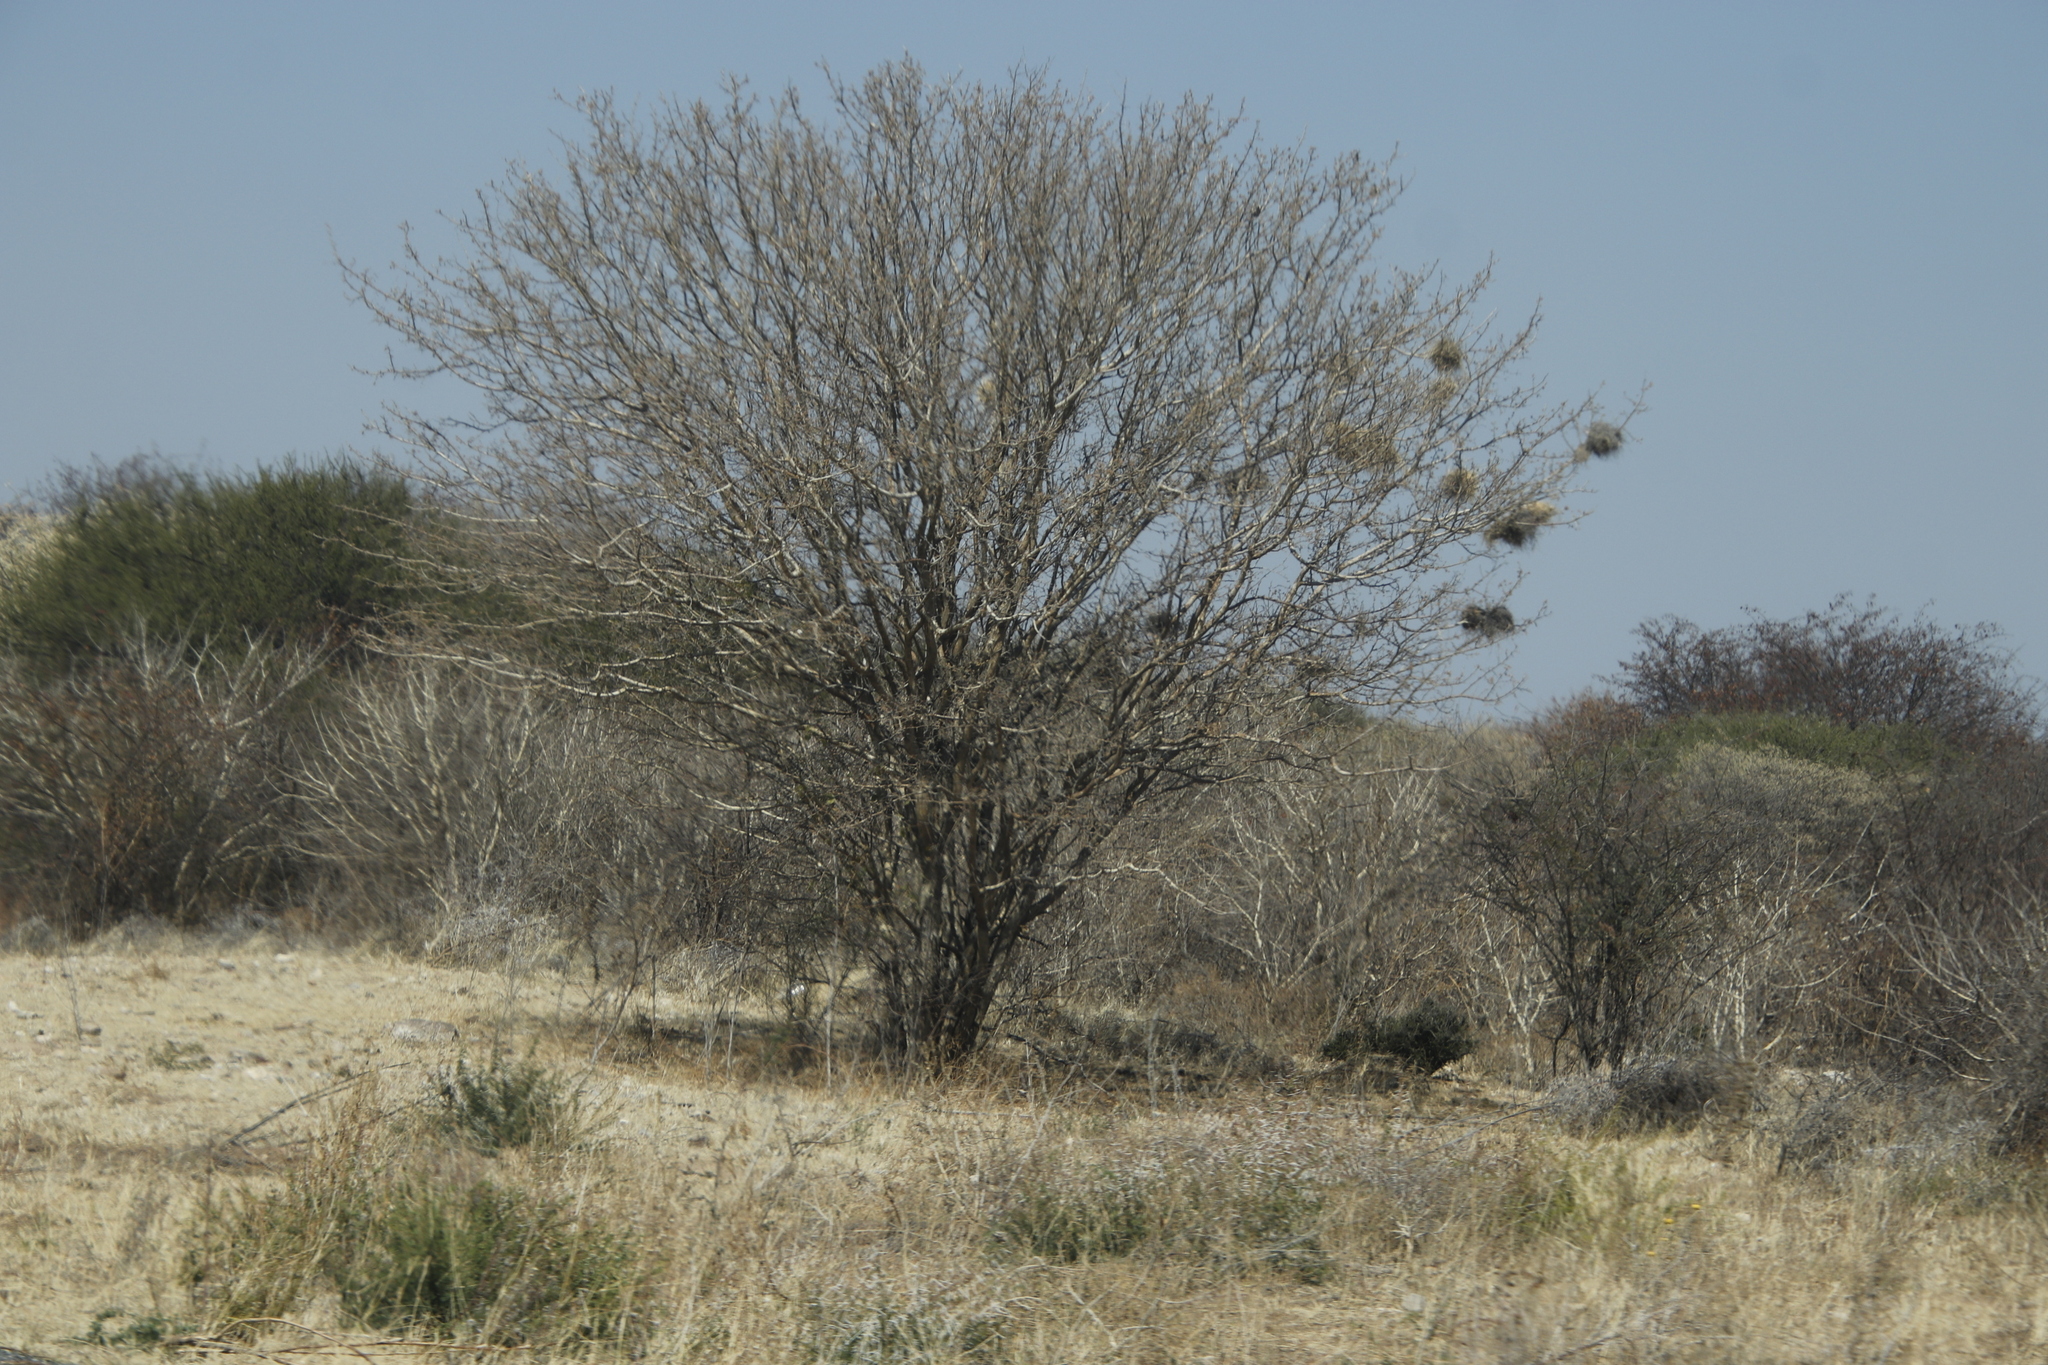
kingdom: Animalia
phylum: Chordata
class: Aves
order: Passeriformes
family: Passeridae
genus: Plocepasser
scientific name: Plocepasser mahali
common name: White-browed sparrow-weaver
